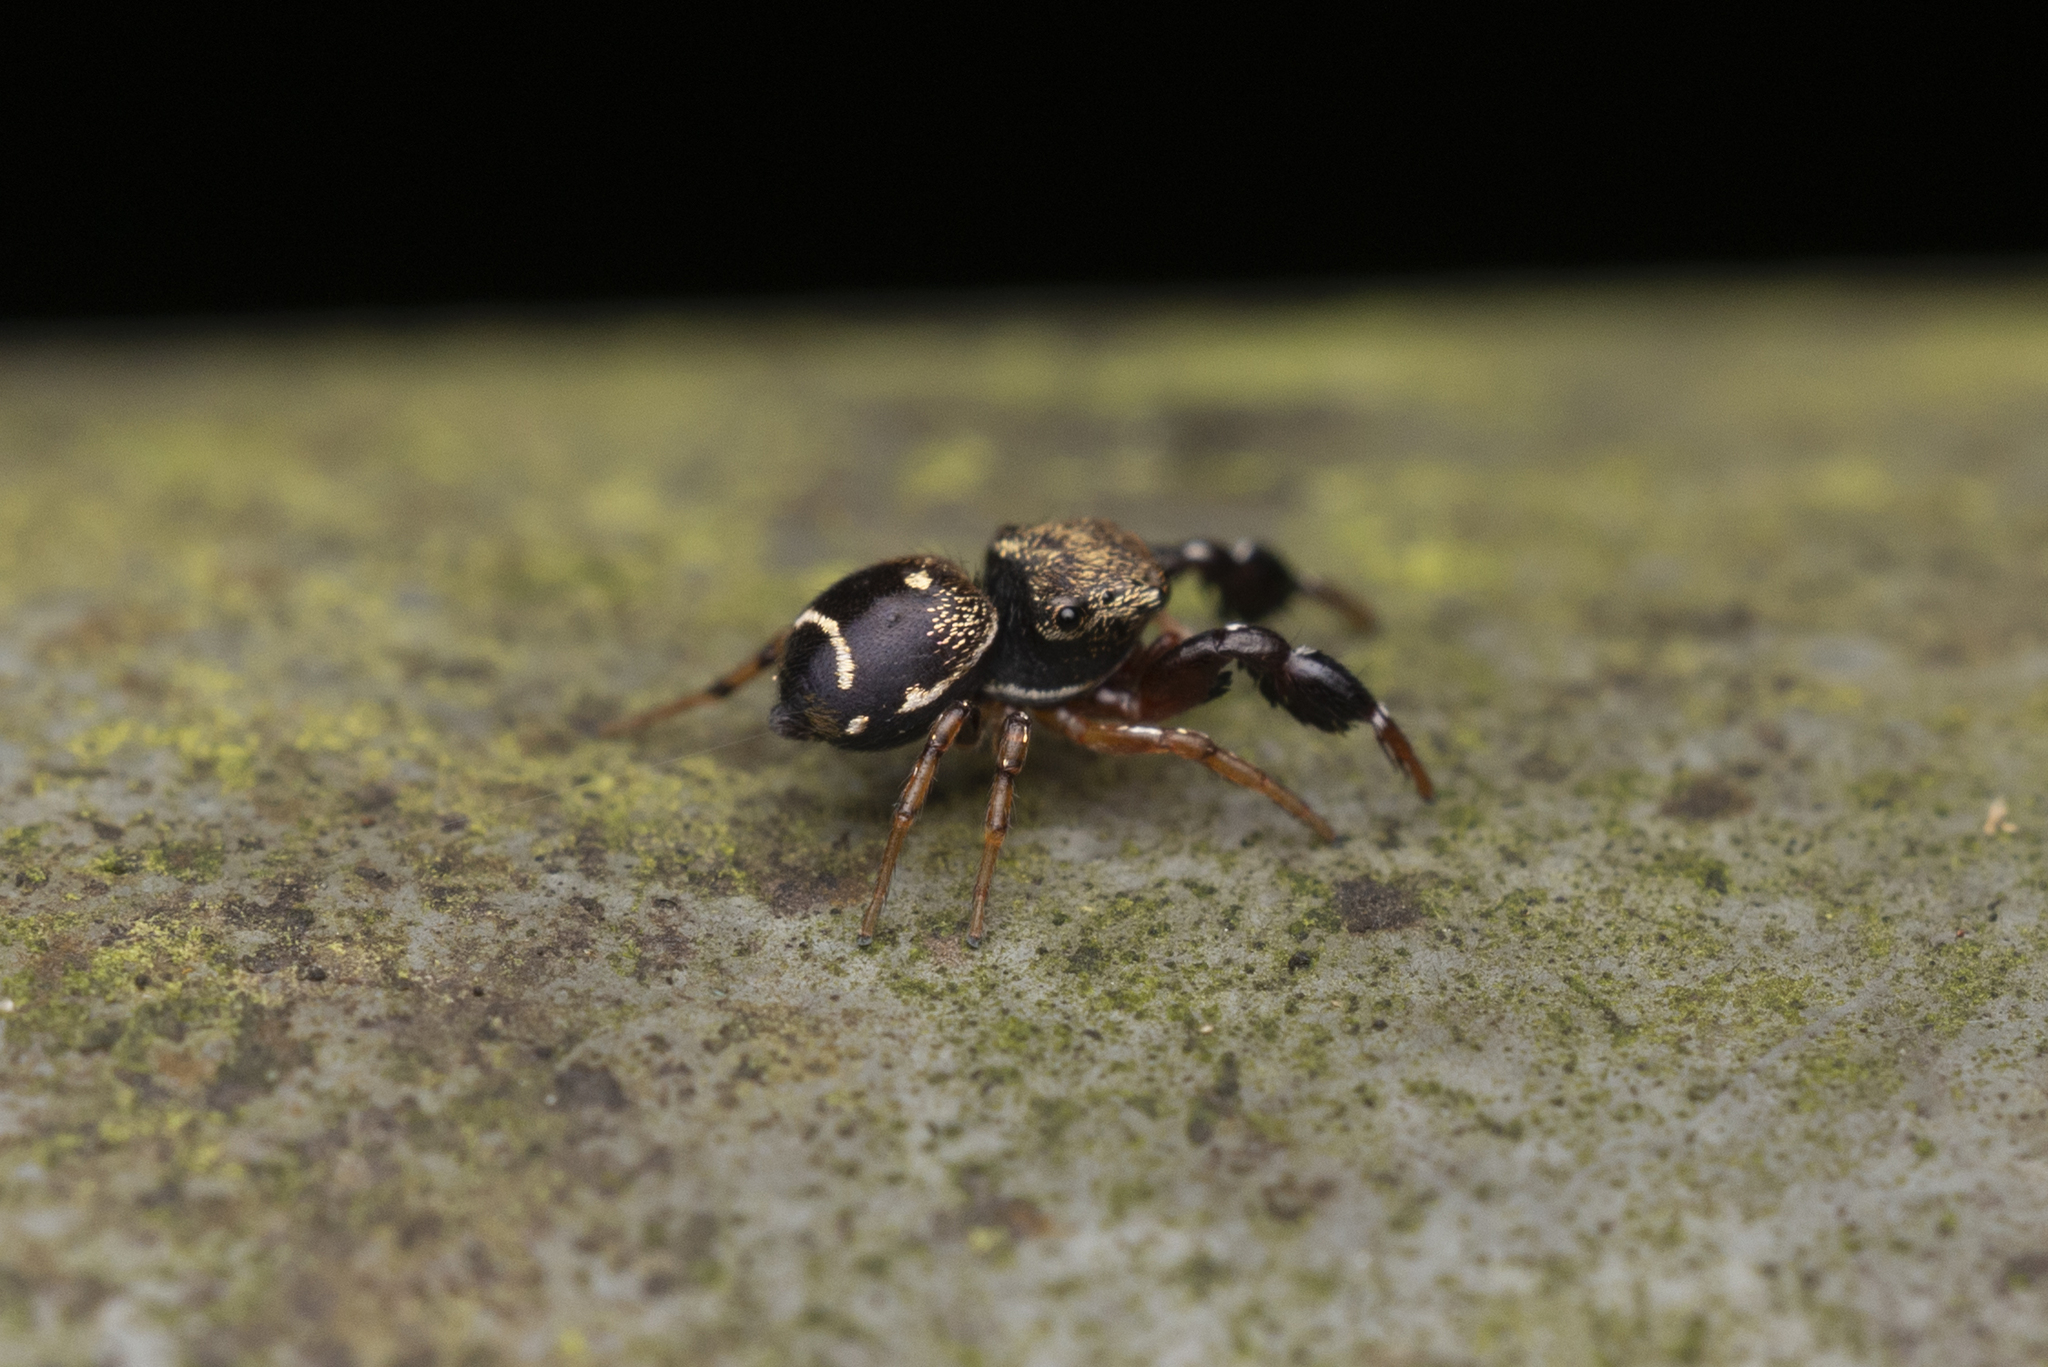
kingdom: Animalia
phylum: Arthropoda
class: Arachnida
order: Araneae
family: Salticidae
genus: Harmochirus
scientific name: Harmochirus insulanus
